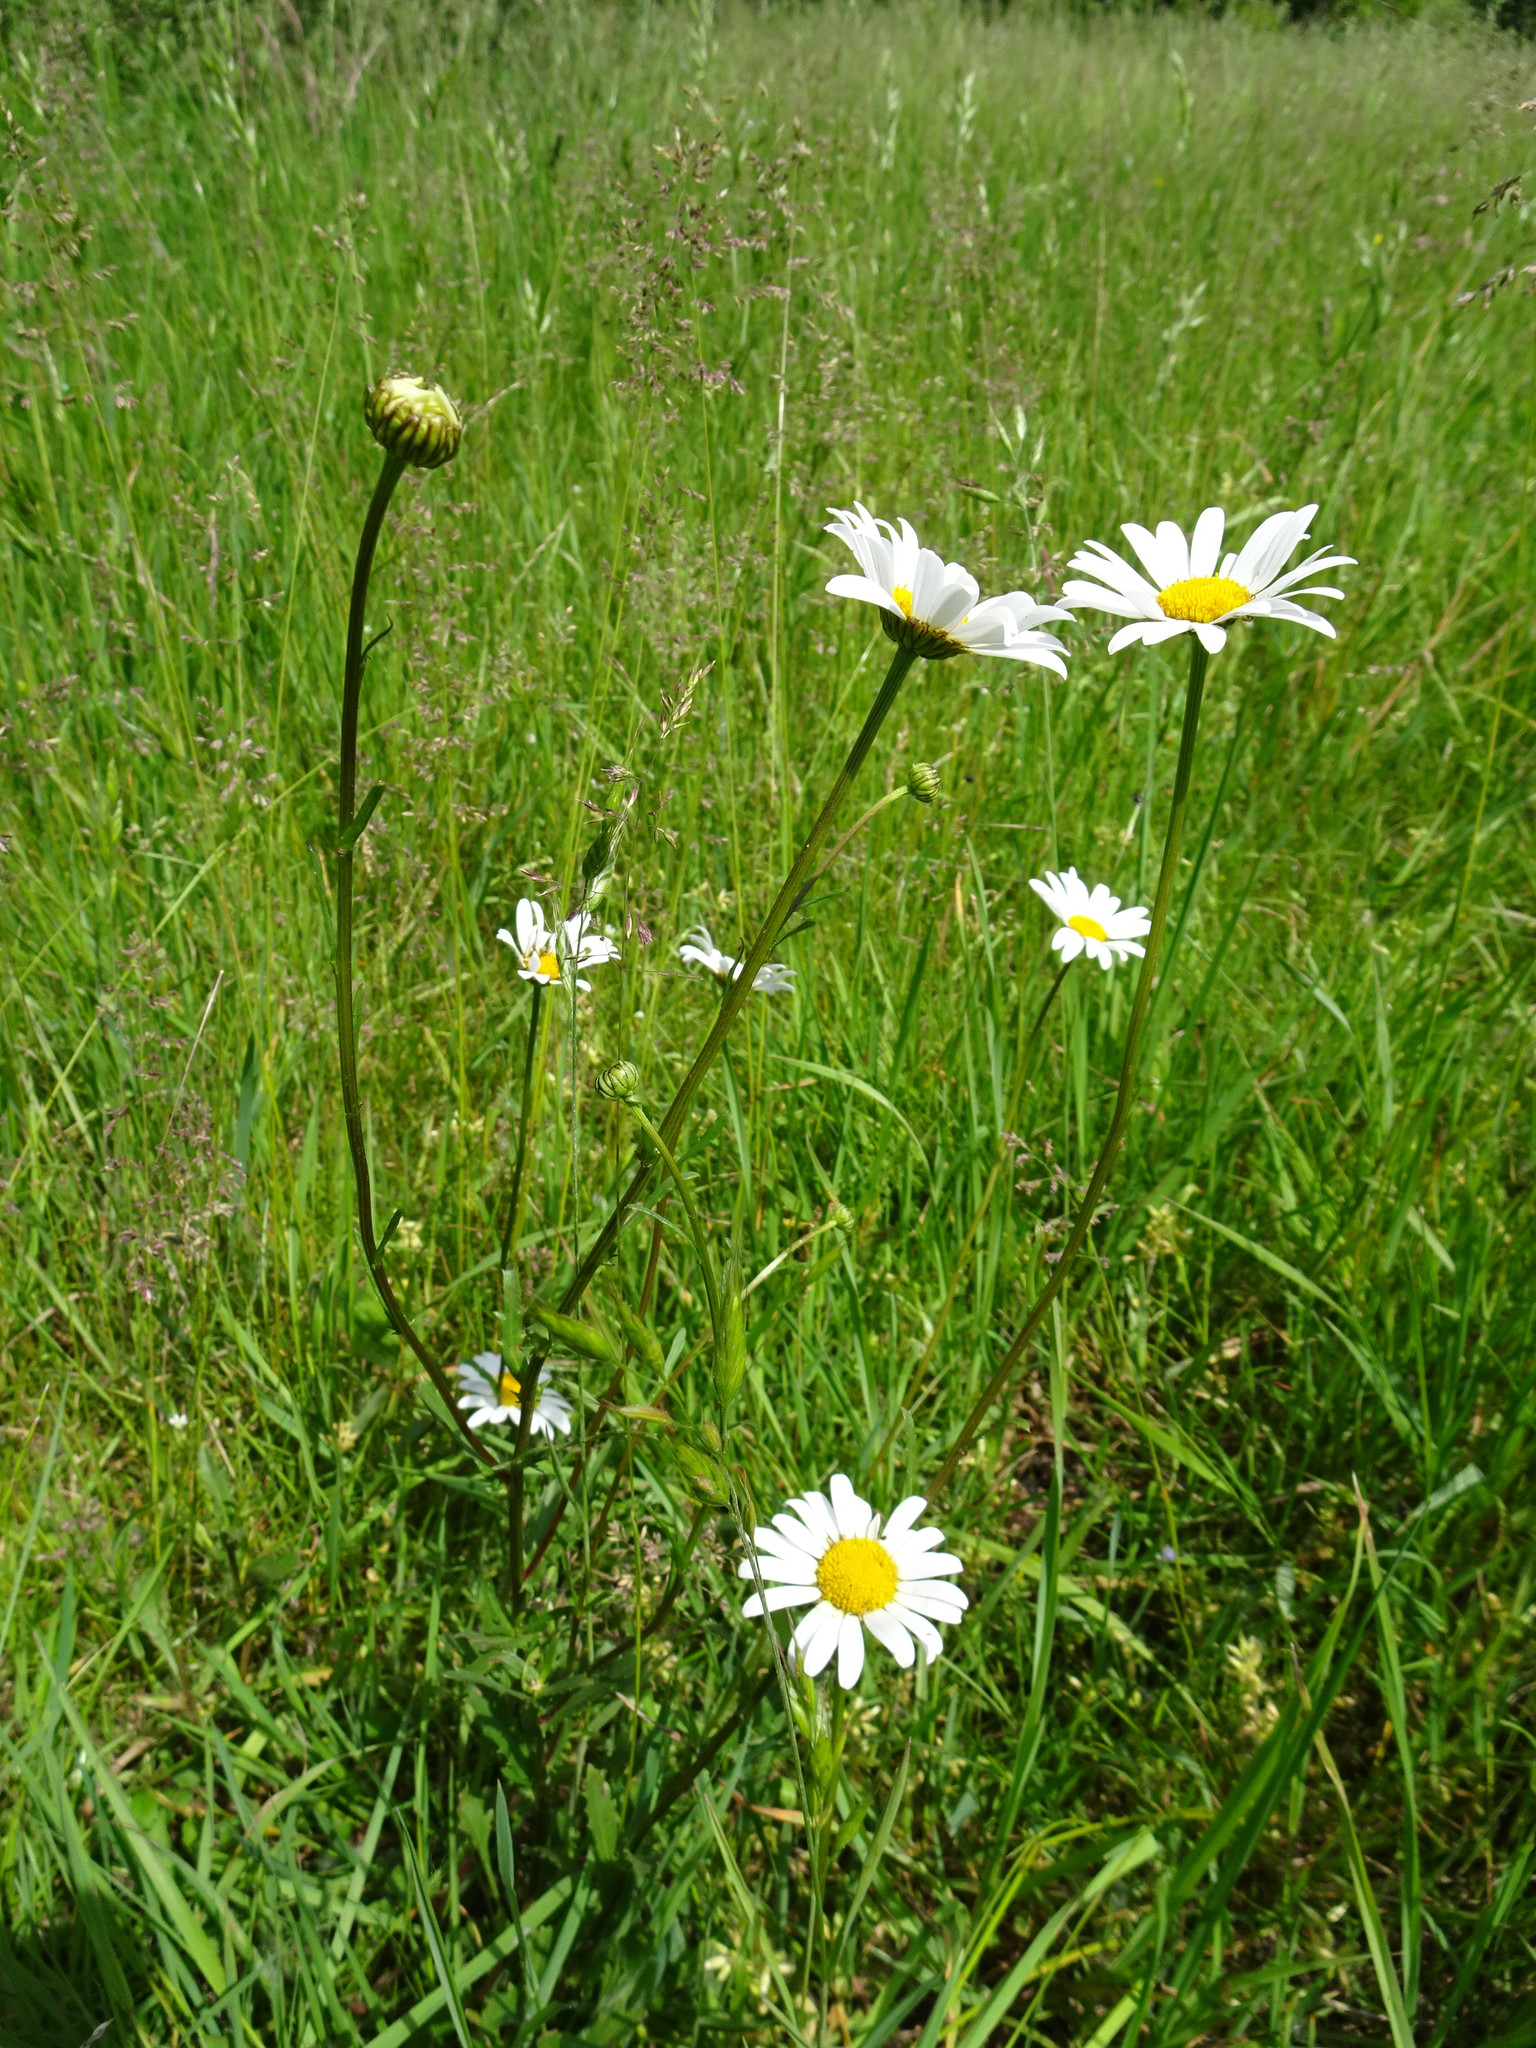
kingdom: Plantae
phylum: Tracheophyta
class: Magnoliopsida
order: Asterales
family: Asteraceae
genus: Leucanthemum
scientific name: Leucanthemum vulgare
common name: Oxeye daisy
